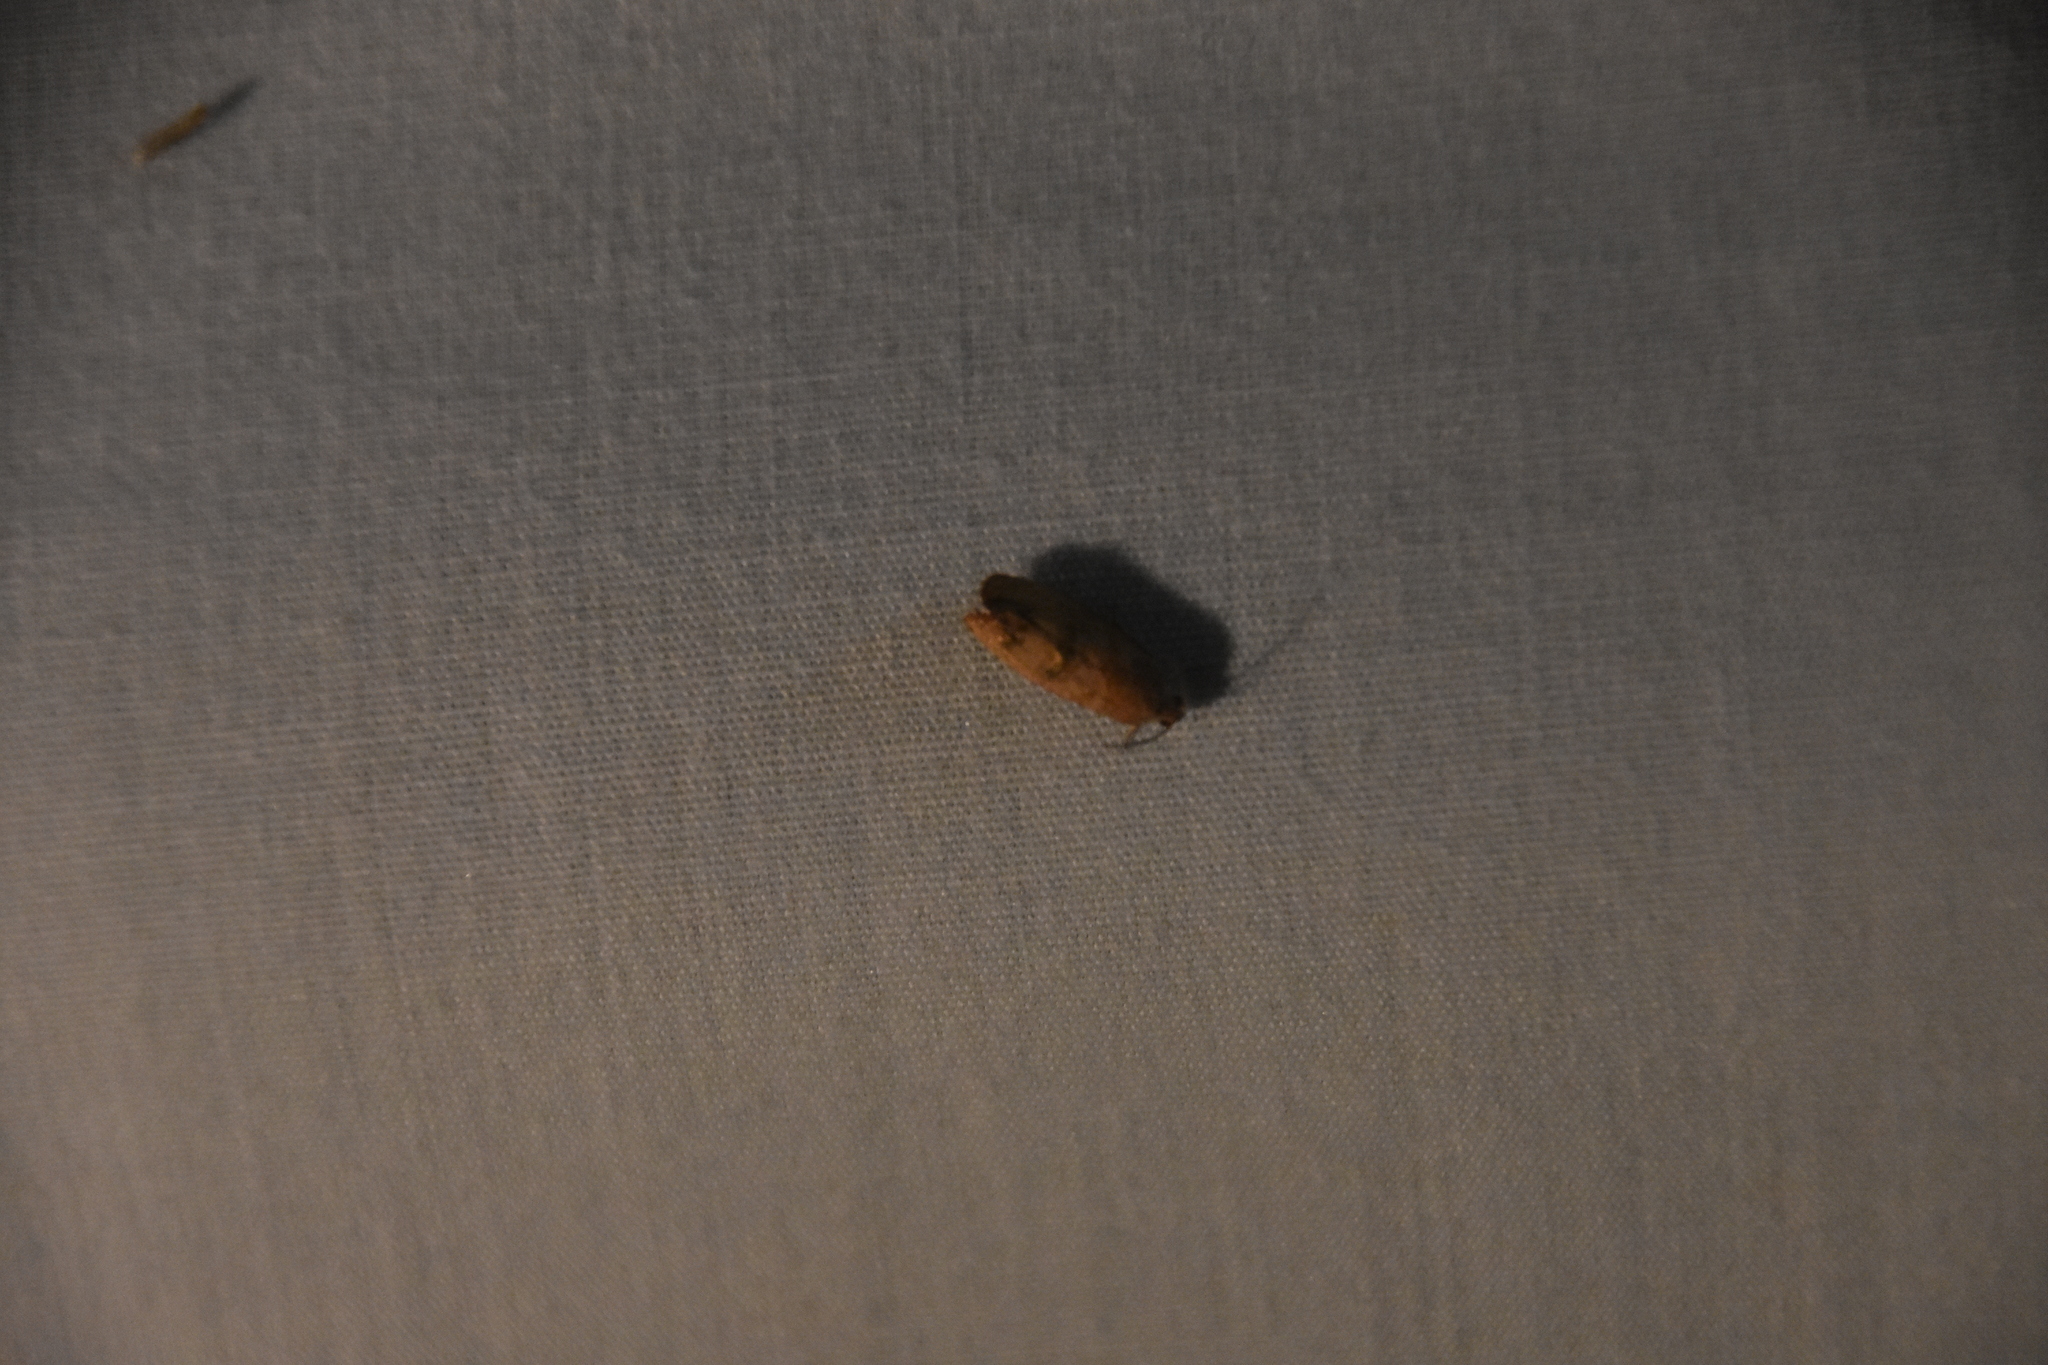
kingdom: Animalia
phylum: Arthropoda
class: Insecta
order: Lepidoptera
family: Tortricidae
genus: Cydia
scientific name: Cydia latiferreana
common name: Filbertworm moth
